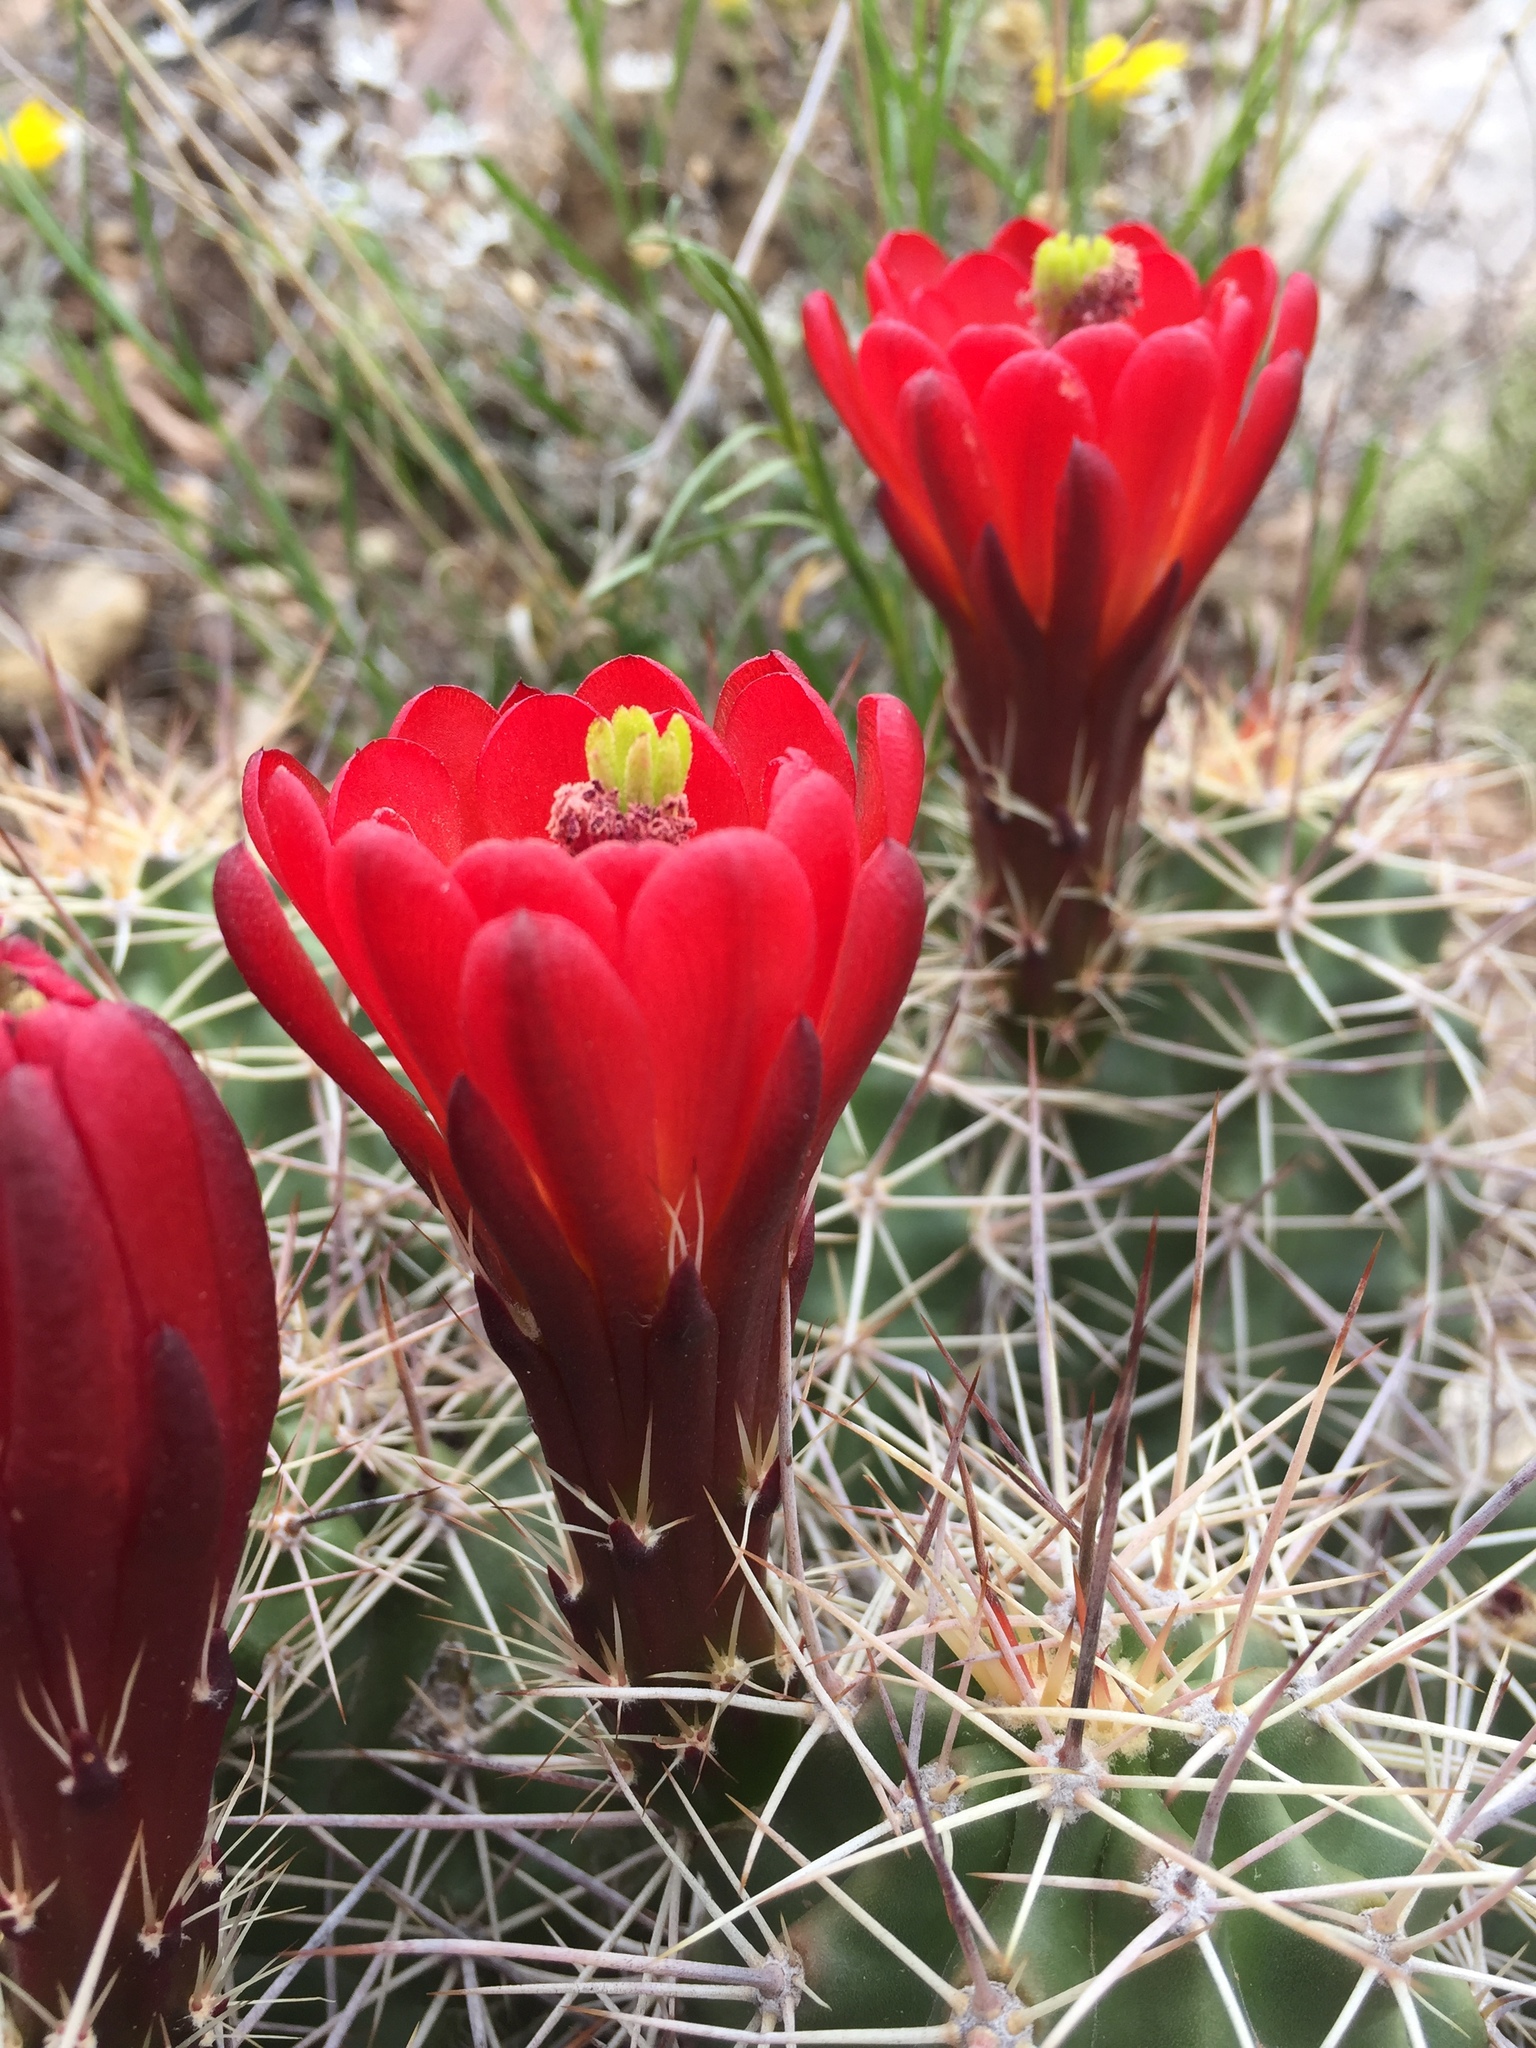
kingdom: Plantae
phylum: Tracheophyta
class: Magnoliopsida
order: Caryophyllales
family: Cactaceae
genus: Echinocereus
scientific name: Echinocereus triglochidiatus
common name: Claretcup hedgehog
